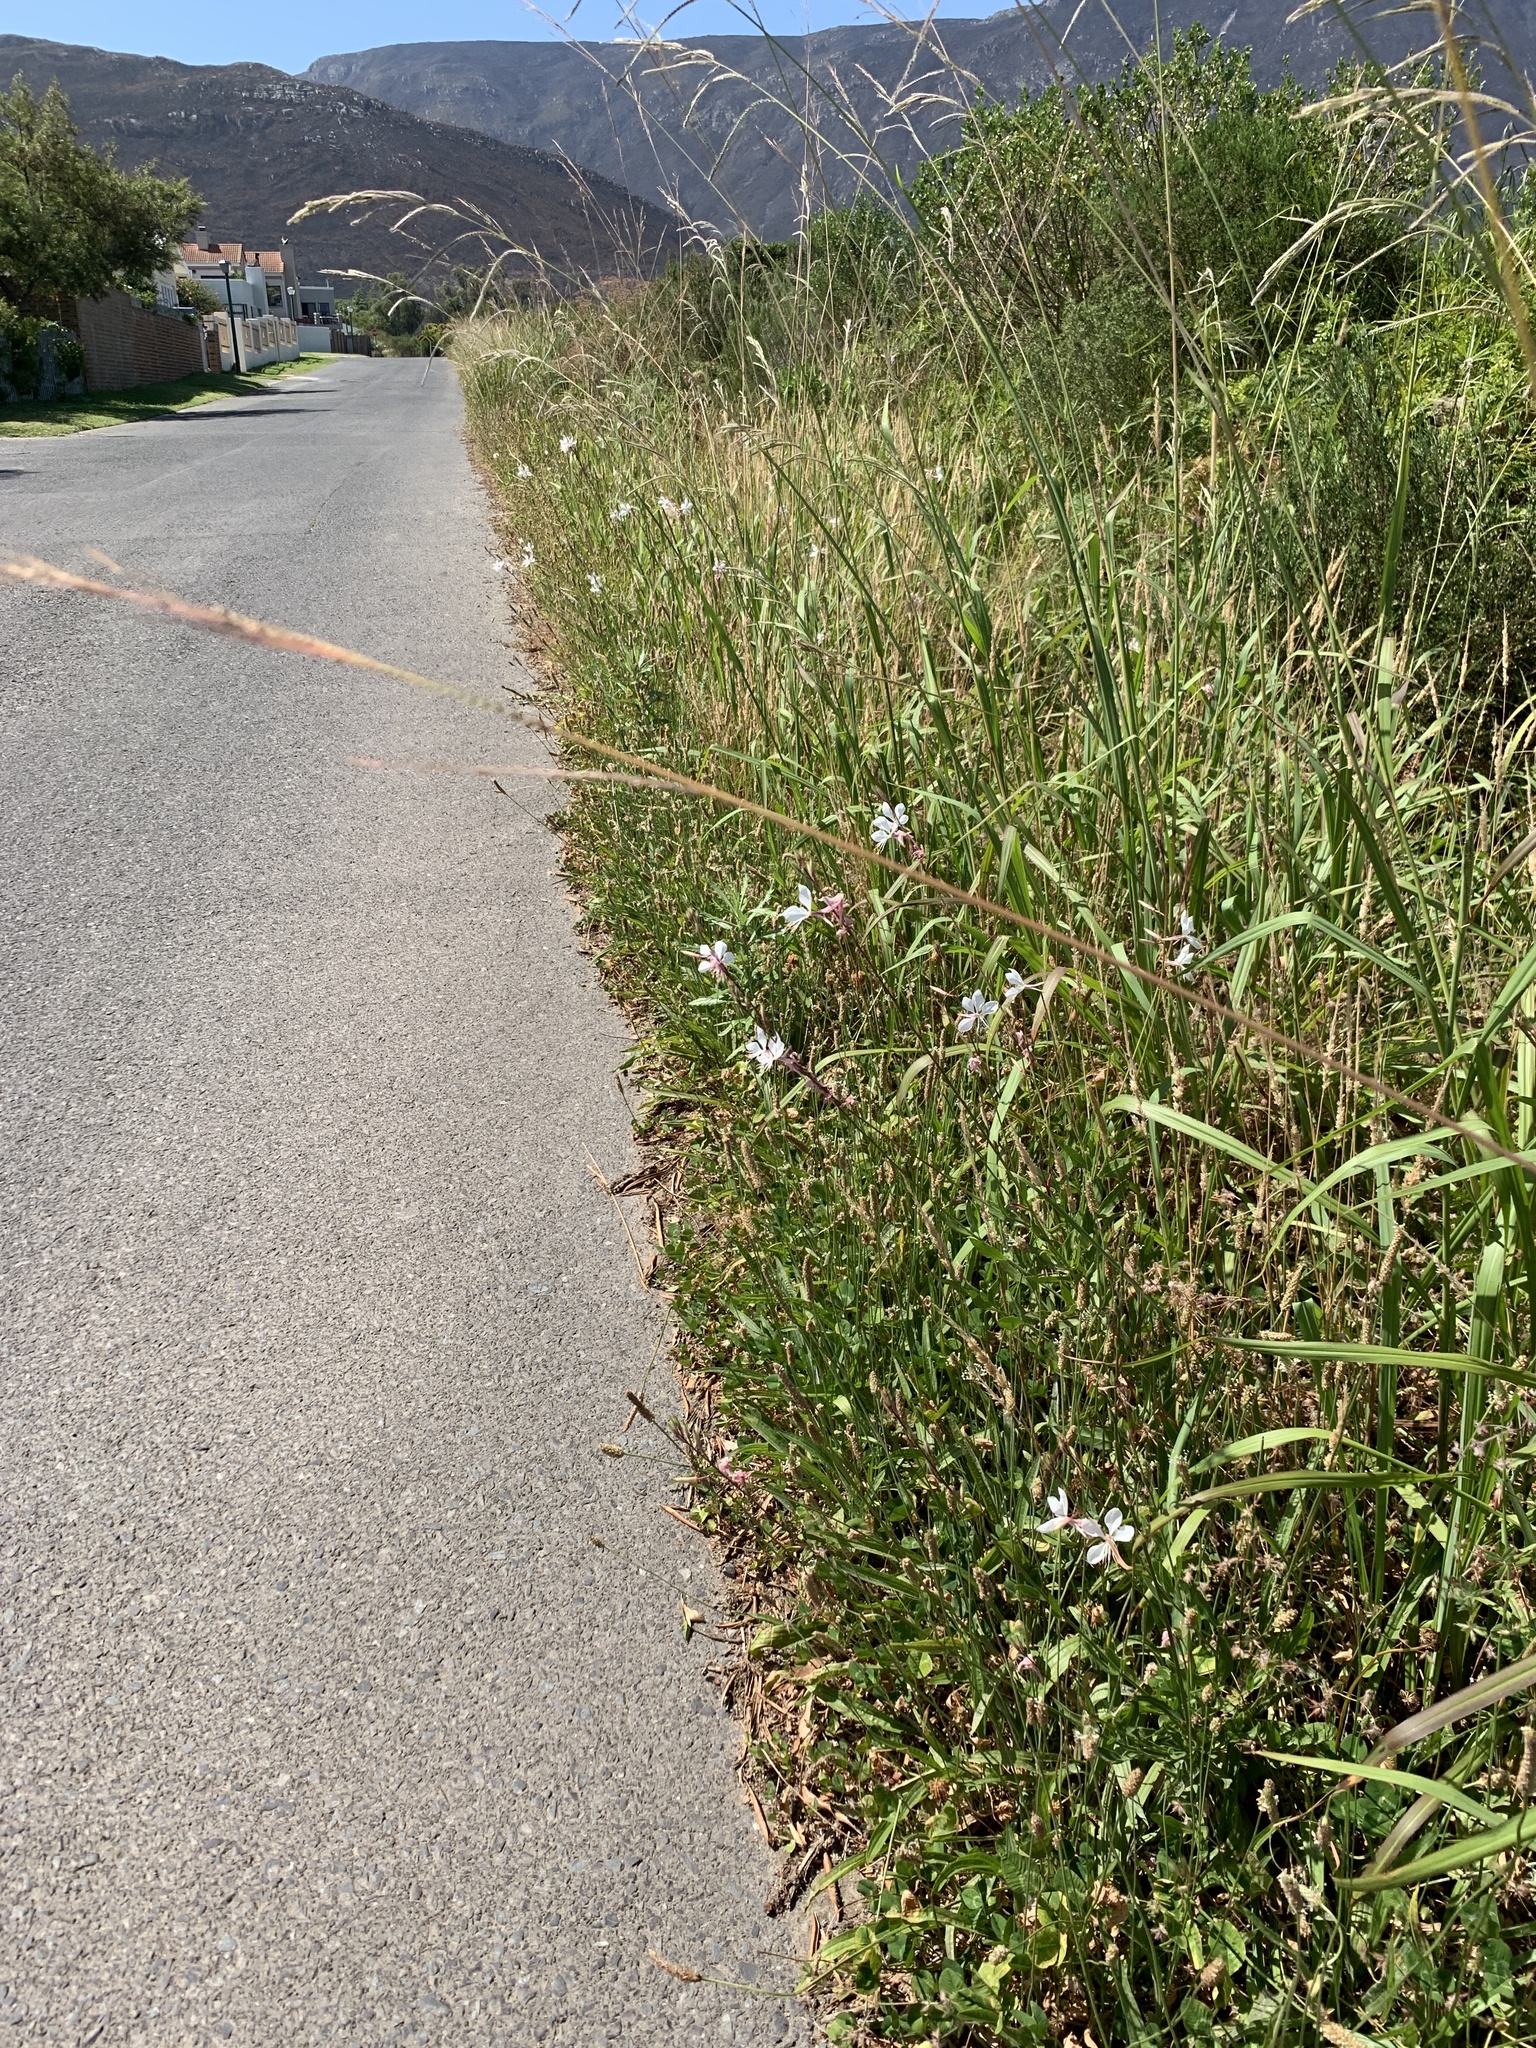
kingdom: Plantae
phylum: Tracheophyta
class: Magnoliopsida
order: Myrtales
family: Onagraceae
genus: Oenothera
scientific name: Oenothera lindheimeri
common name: Lindheimer's beeblossom
